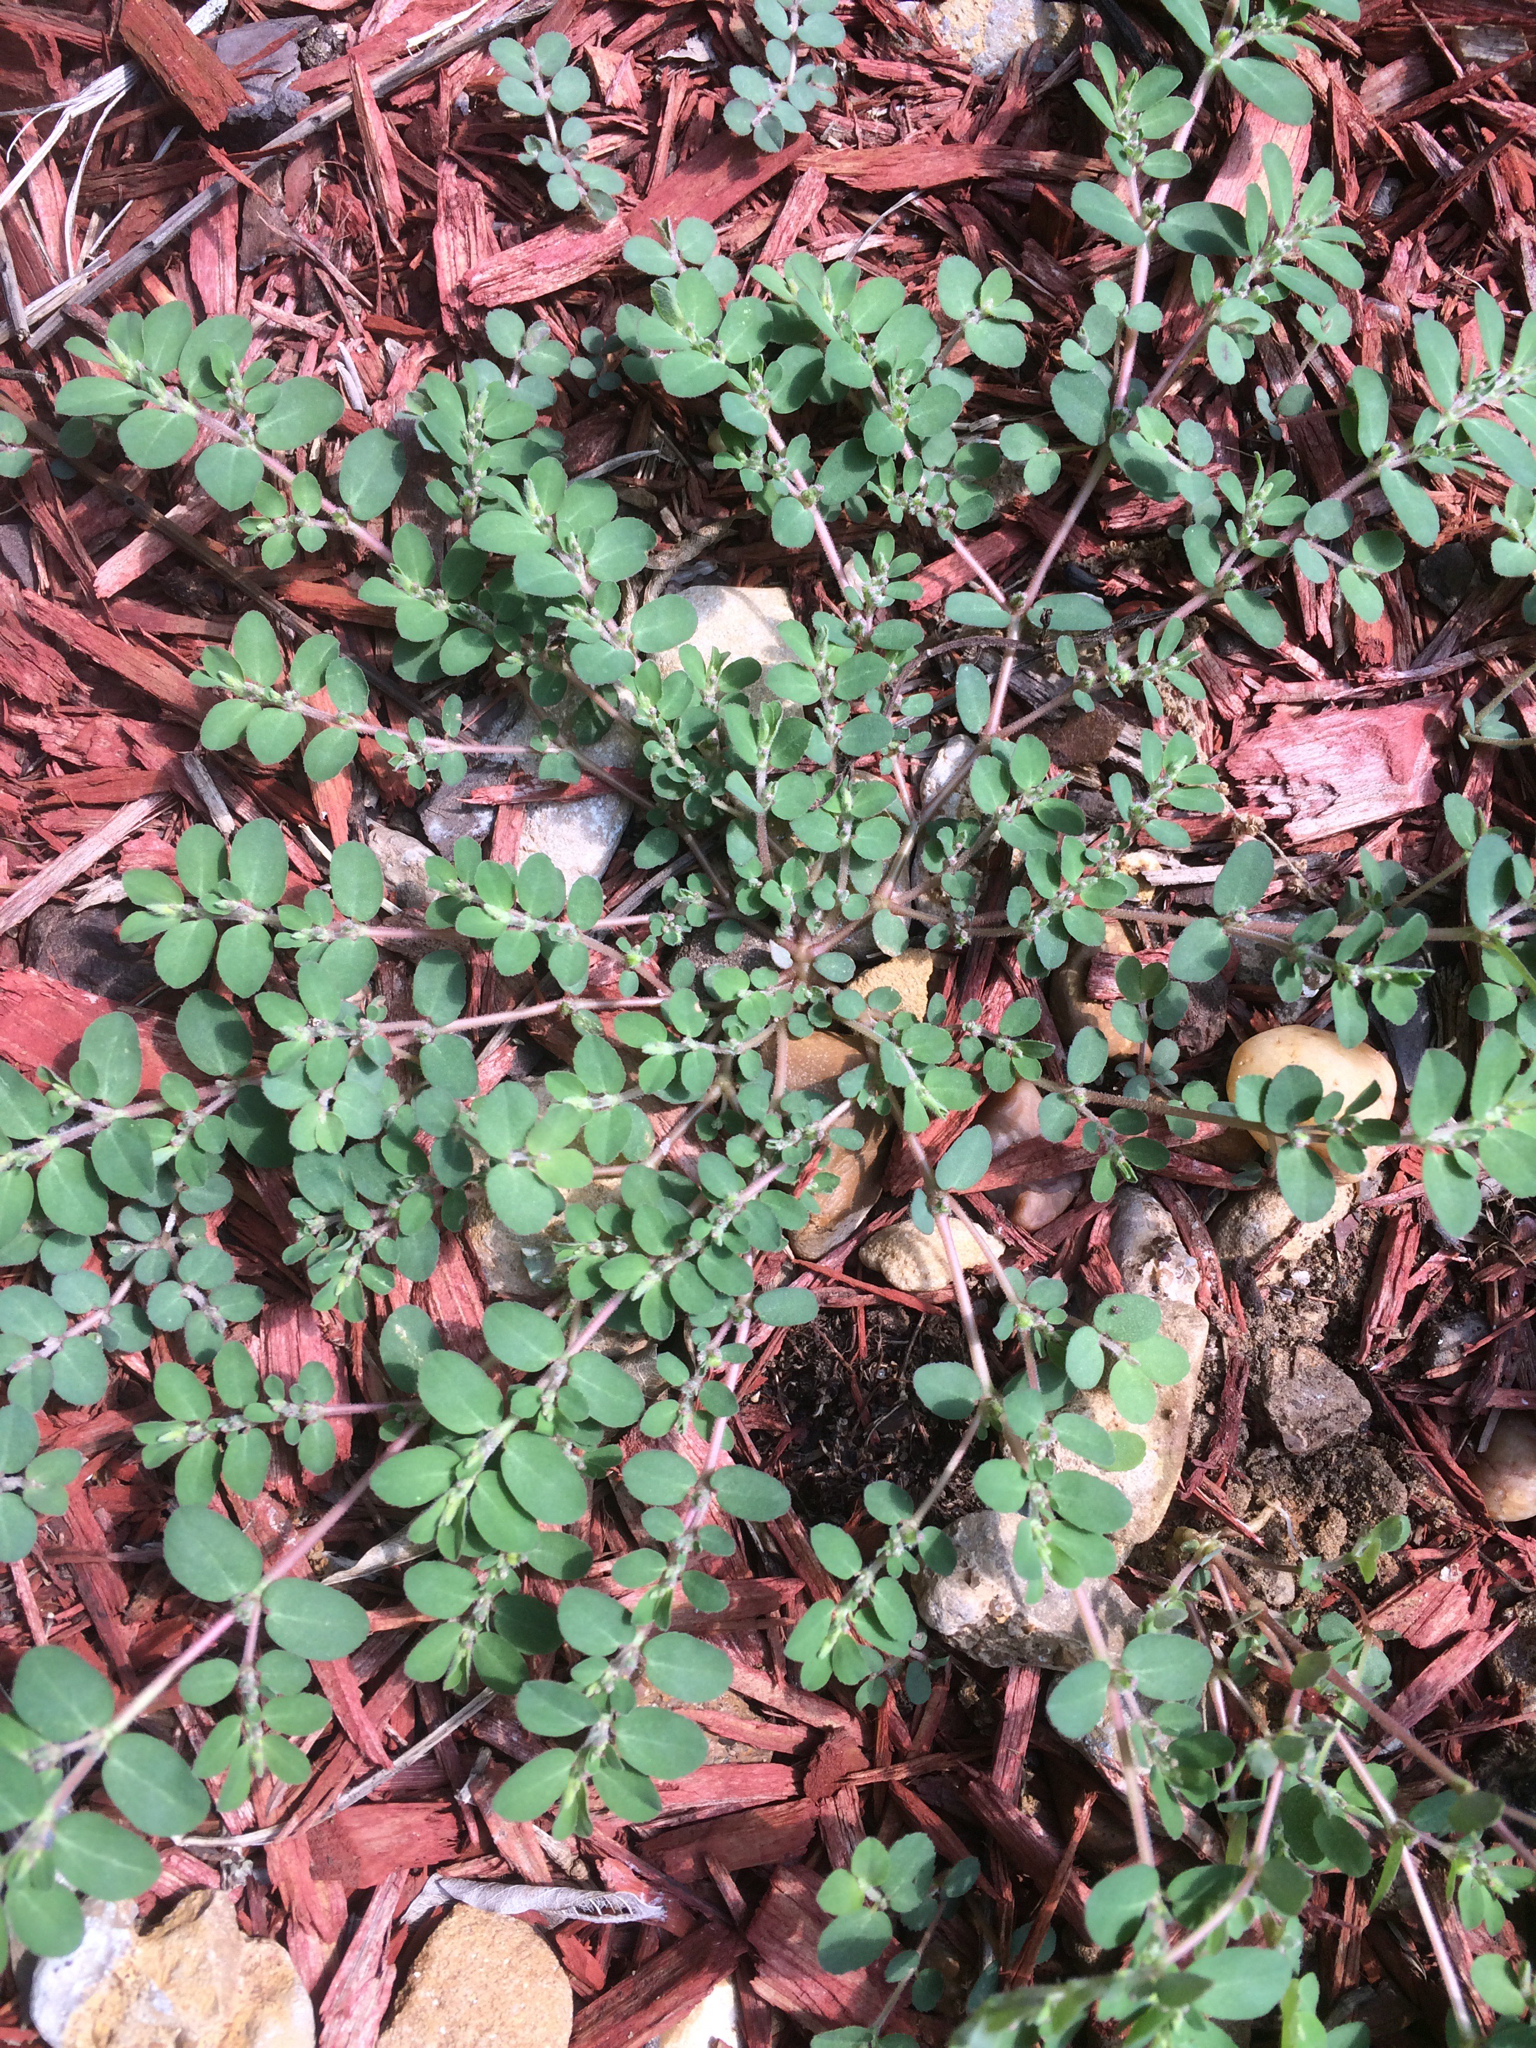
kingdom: Plantae
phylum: Tracheophyta
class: Magnoliopsida
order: Malpighiales
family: Euphorbiaceae
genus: Euphorbia
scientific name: Euphorbia prostrata
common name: Prostrate sandmat
